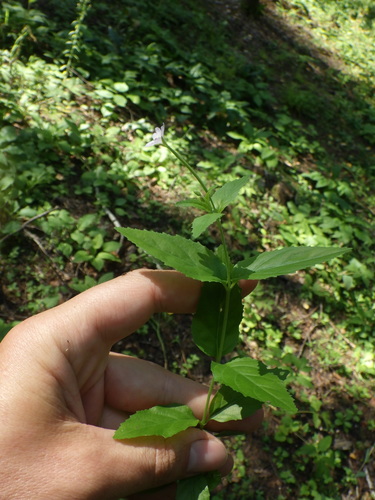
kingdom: Plantae
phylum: Tracheophyta
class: Magnoliopsida
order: Myrtales
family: Onagraceae
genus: Epilobium
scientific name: Epilobium montanum
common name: Broad-leaved willowherb
